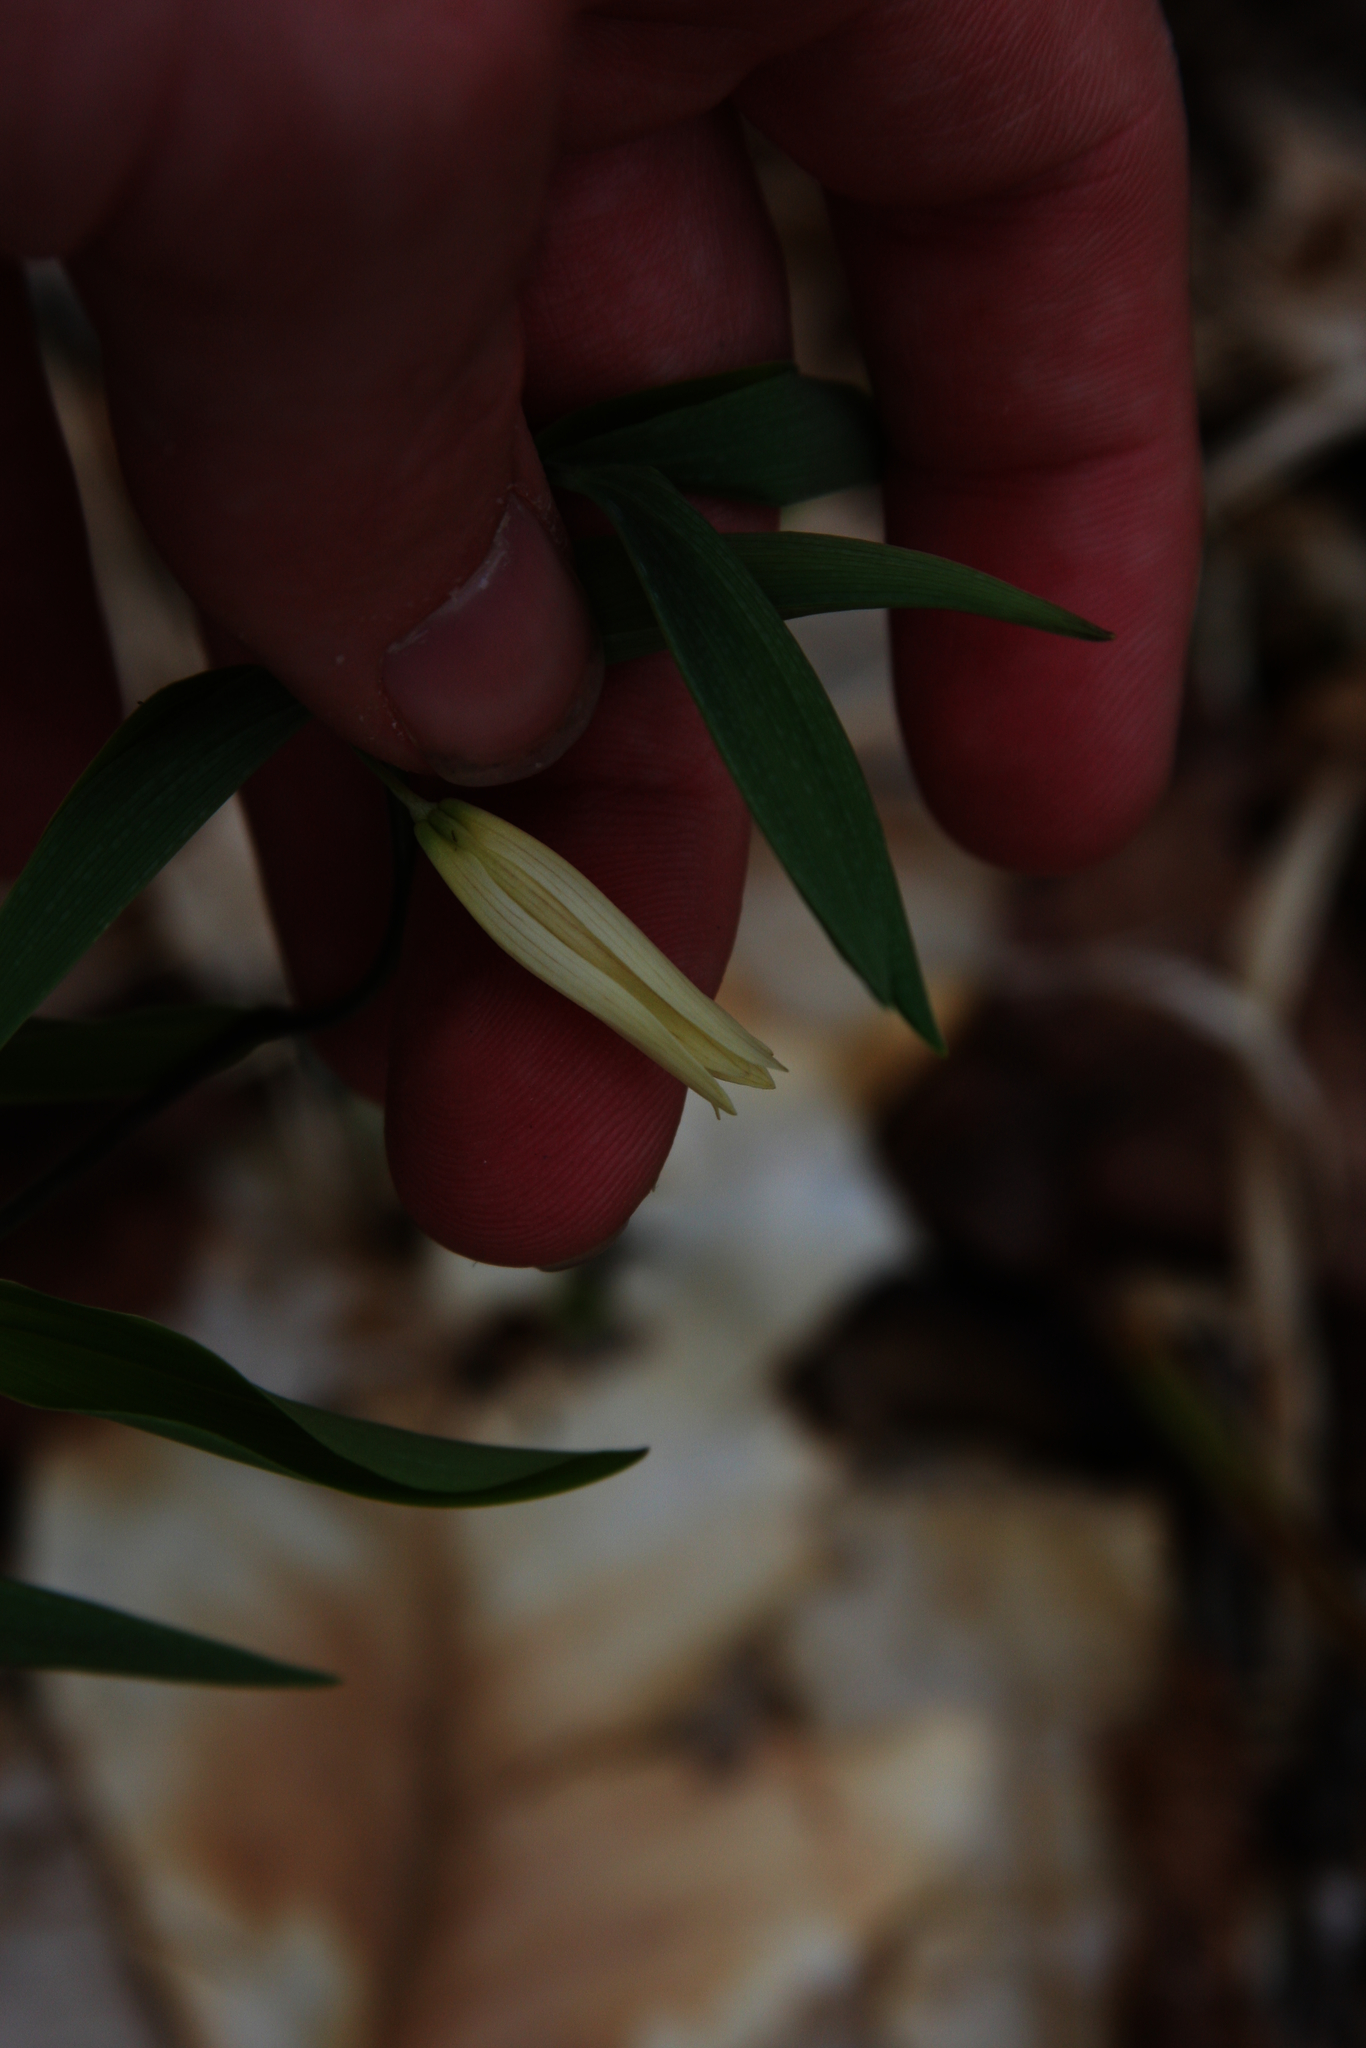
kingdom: Plantae
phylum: Tracheophyta
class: Liliopsida
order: Liliales
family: Colchicaceae
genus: Uvularia
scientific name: Uvularia sessilifolia
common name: Straw-lily
